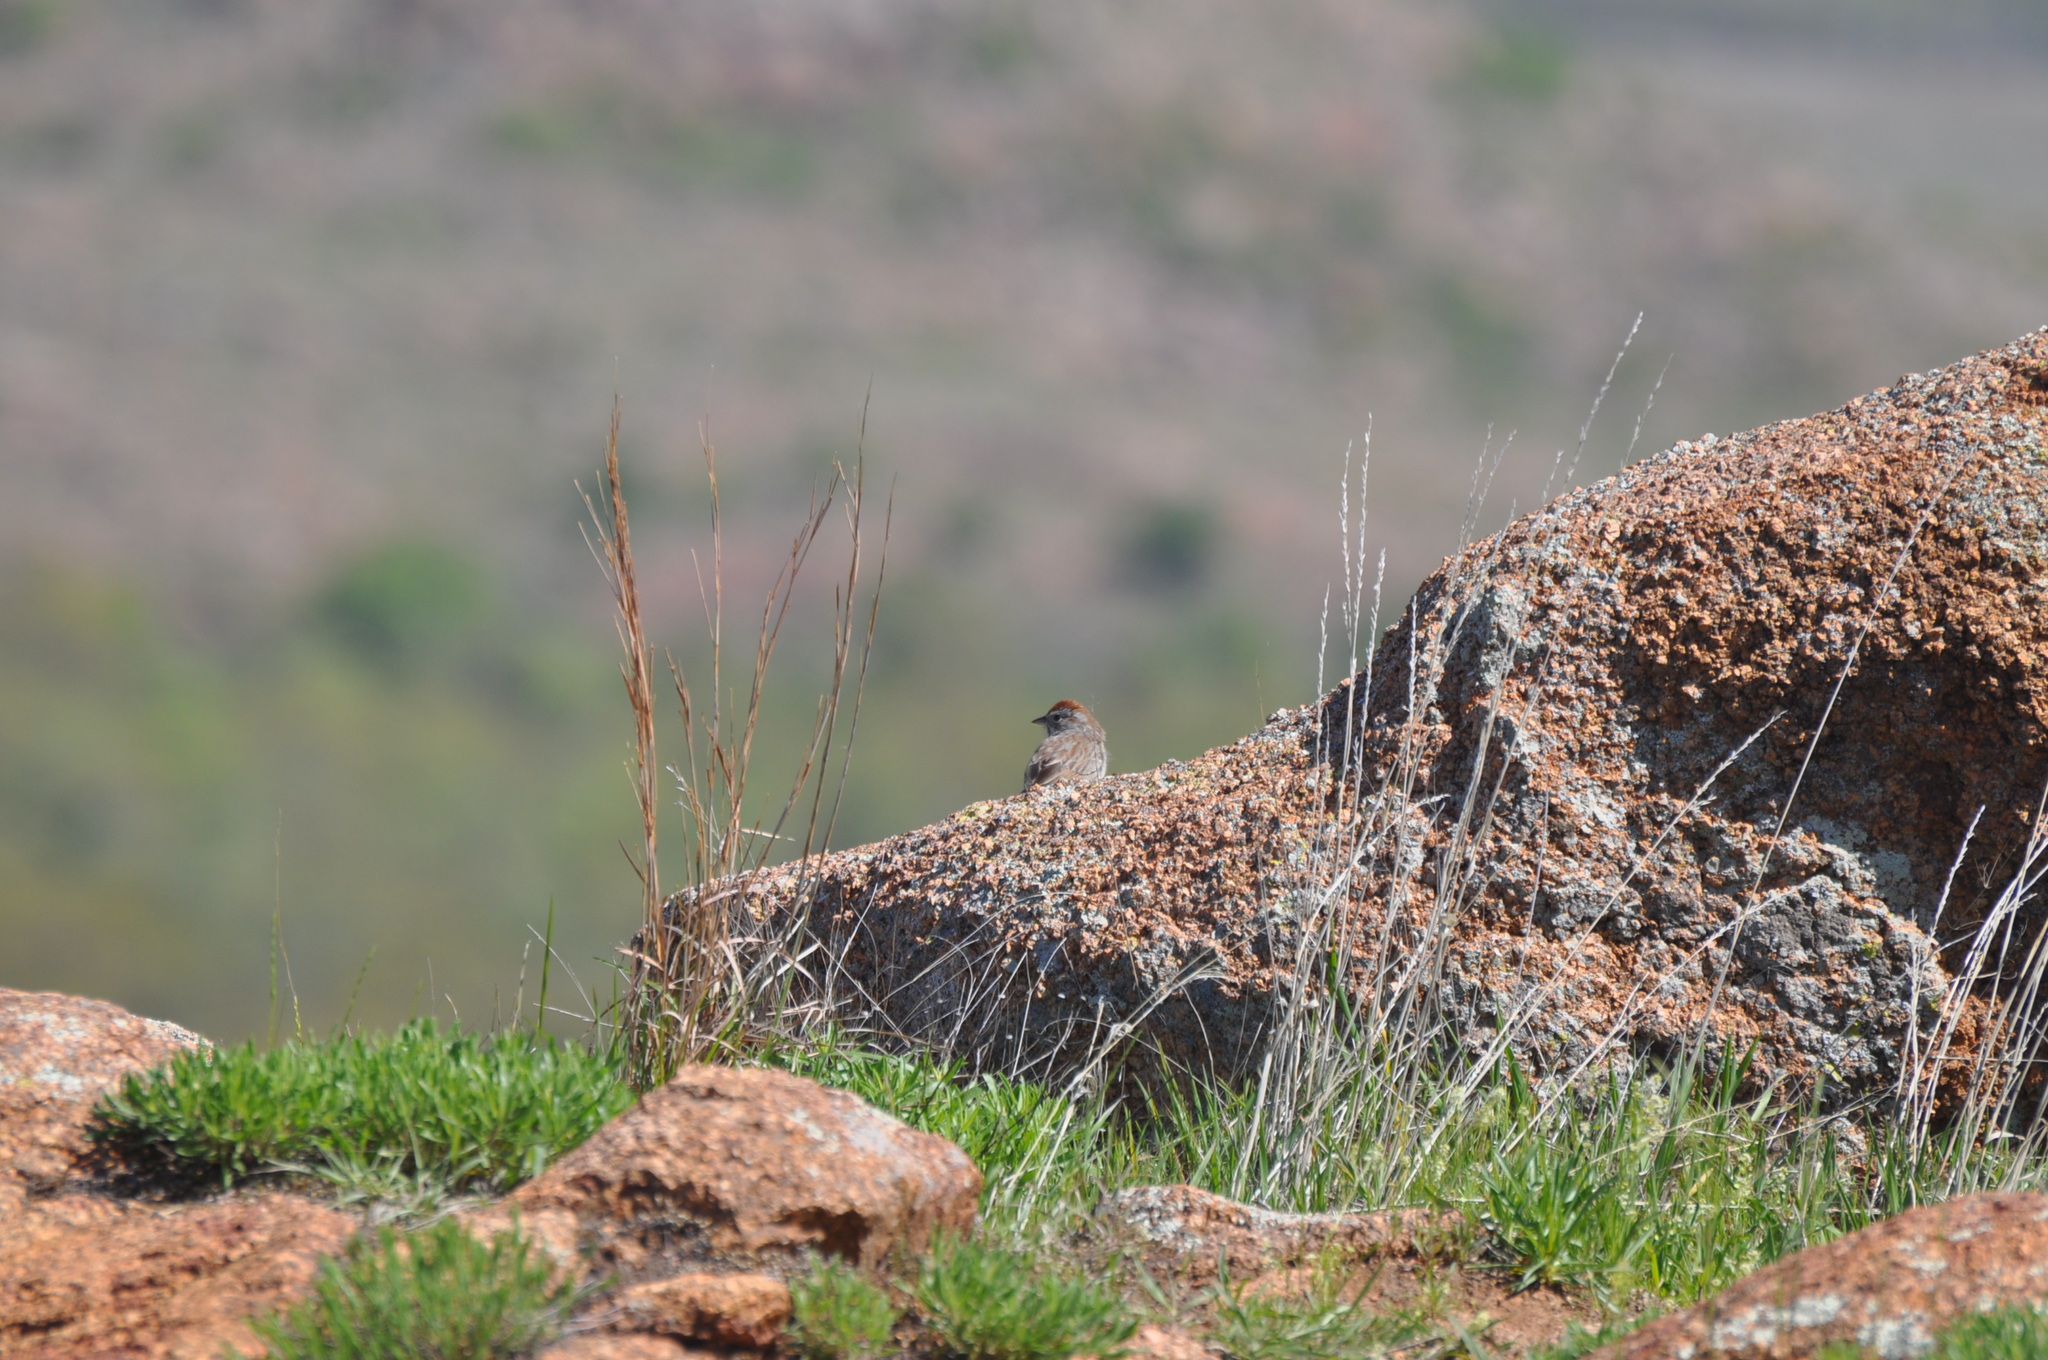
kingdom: Animalia
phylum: Chordata
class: Aves
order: Passeriformes
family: Passerellidae
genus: Aimophila
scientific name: Aimophila ruficeps
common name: Rufous-crowned sparrow
